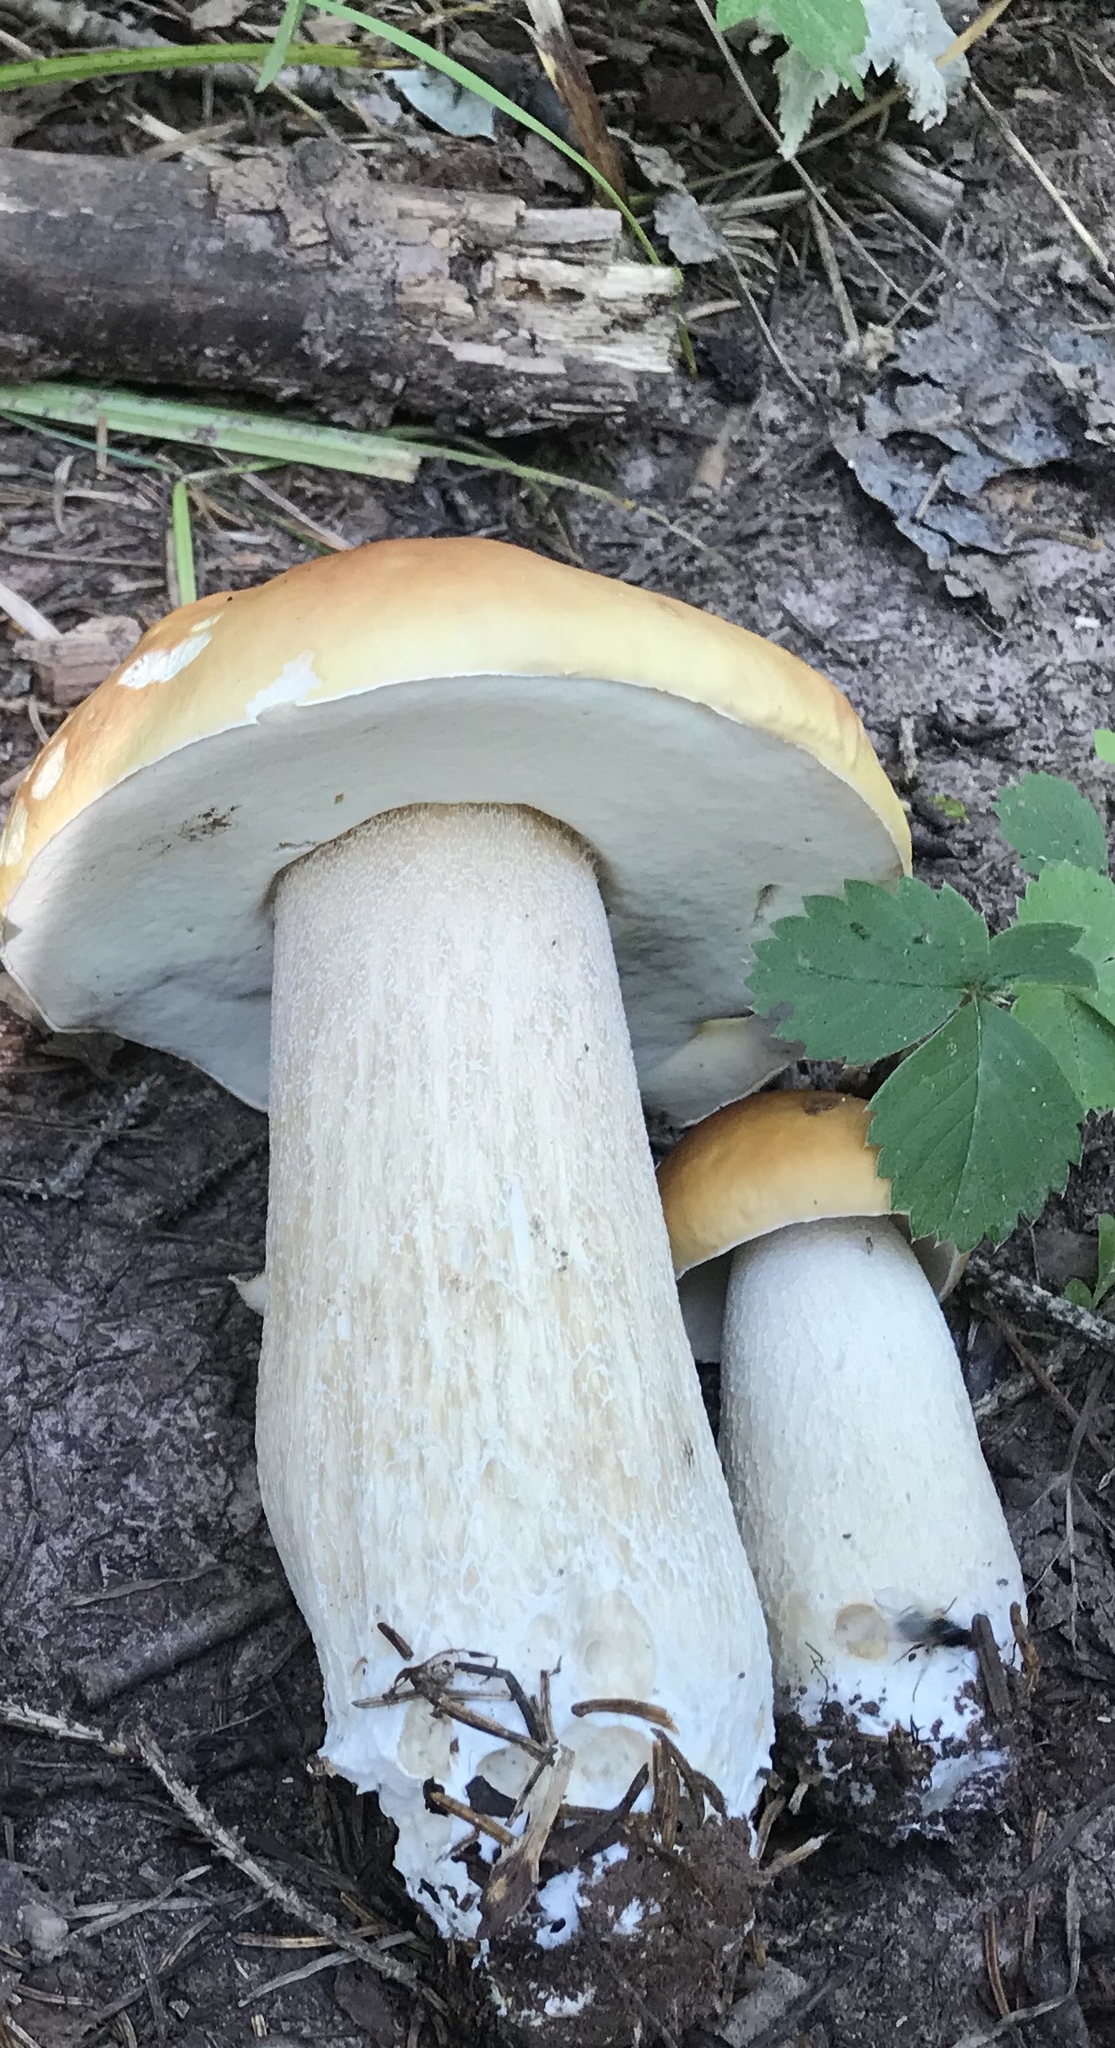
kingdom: Fungi
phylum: Basidiomycota
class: Agaricomycetes
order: Boletales
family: Boletaceae
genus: Boletus
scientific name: Boletus edulis
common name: Cep
